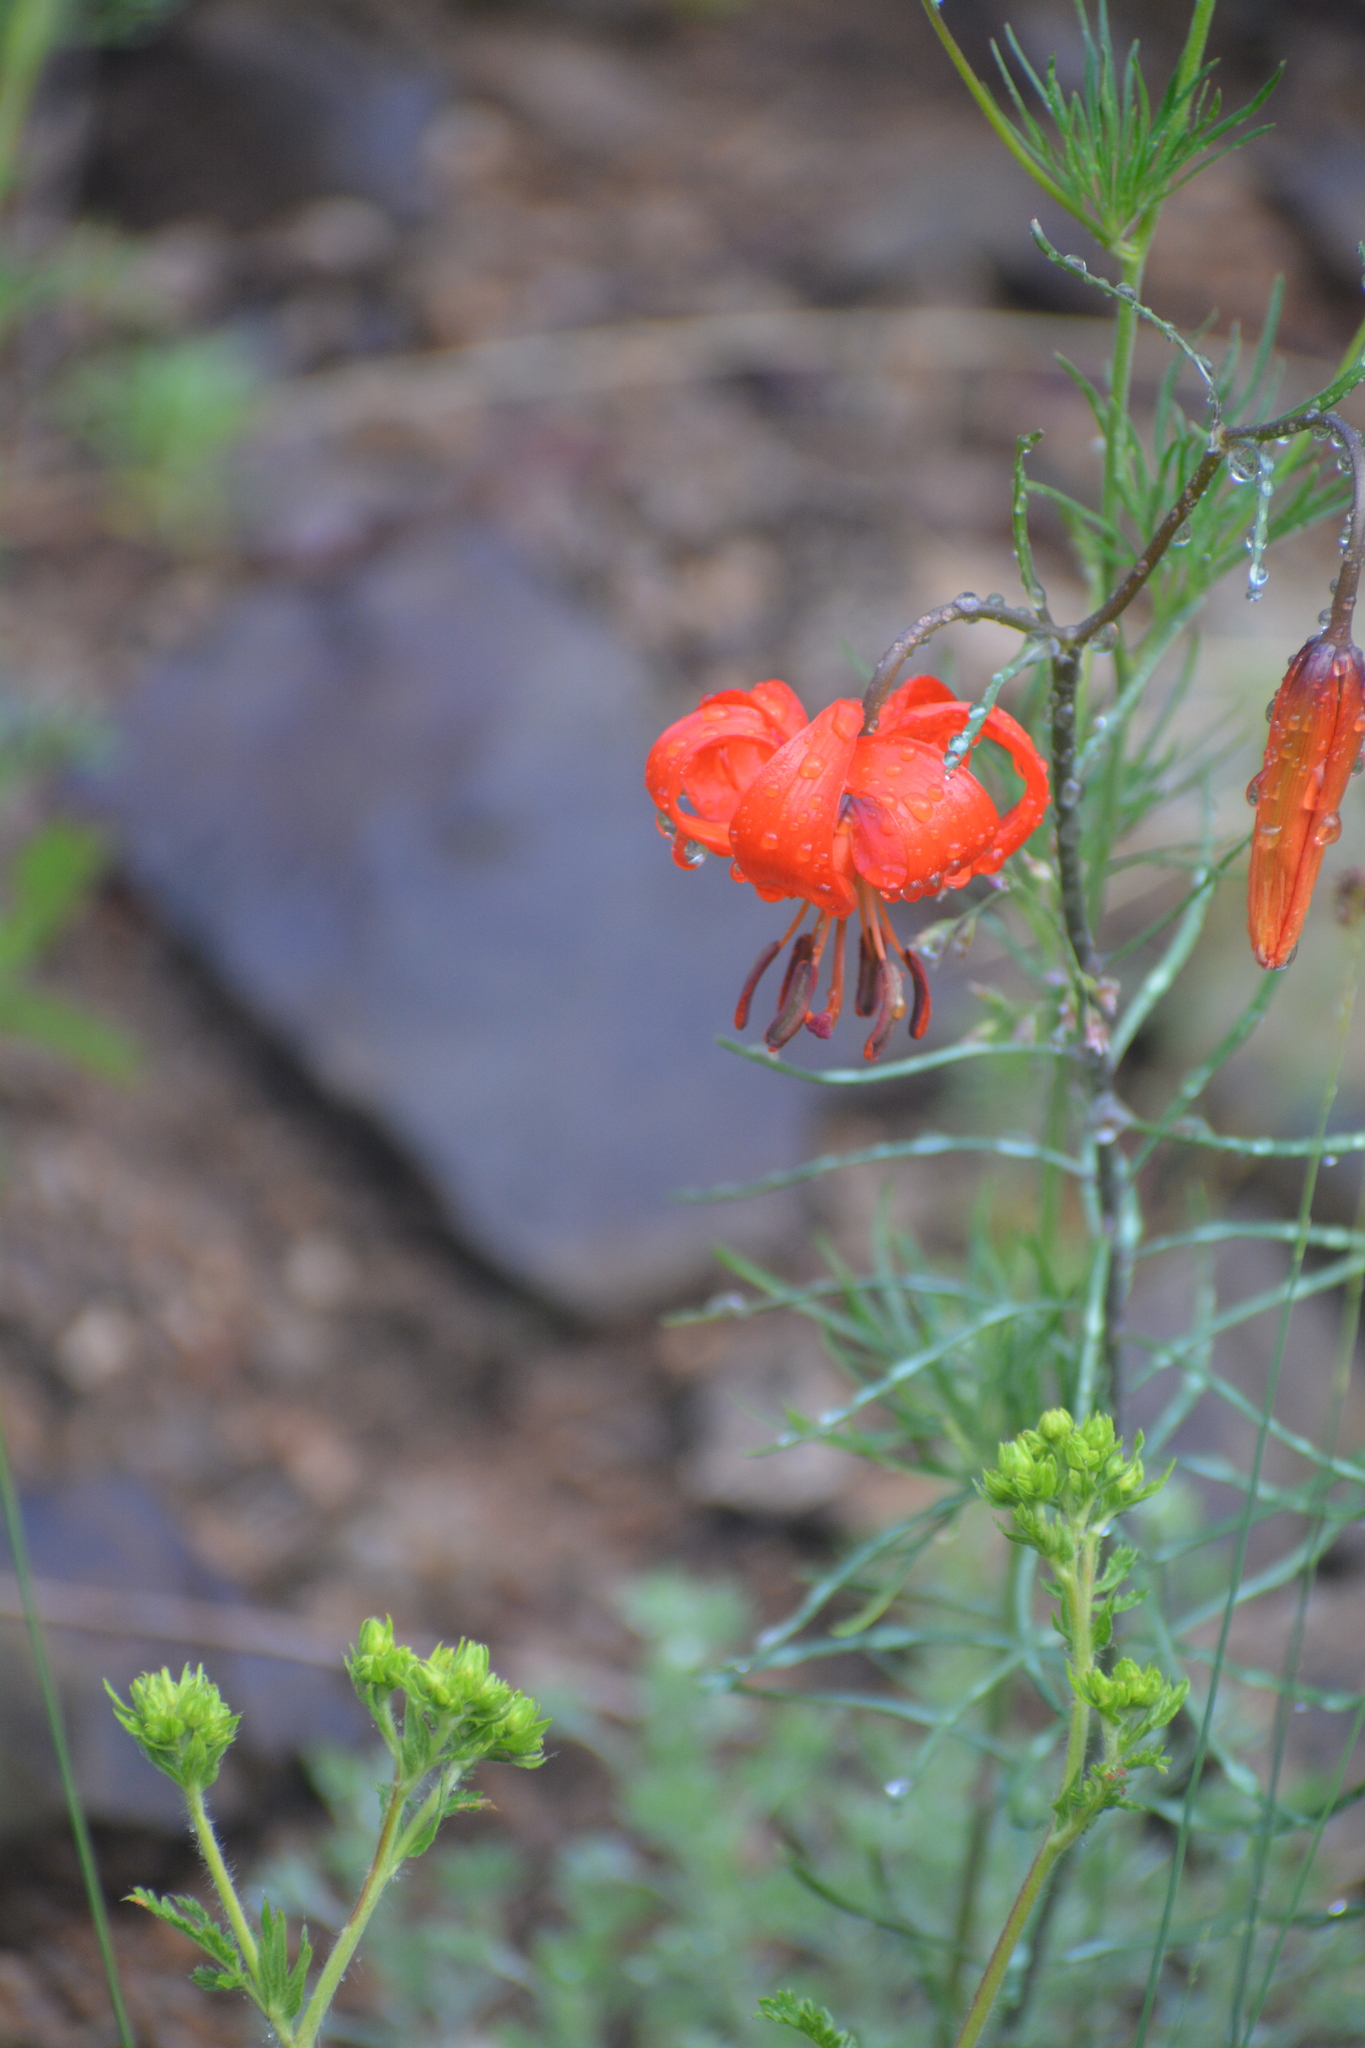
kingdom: Plantae
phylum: Tracheophyta
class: Liliopsida
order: Liliales
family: Liliaceae
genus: Lilium
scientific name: Lilium pumilum
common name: Coral lily
